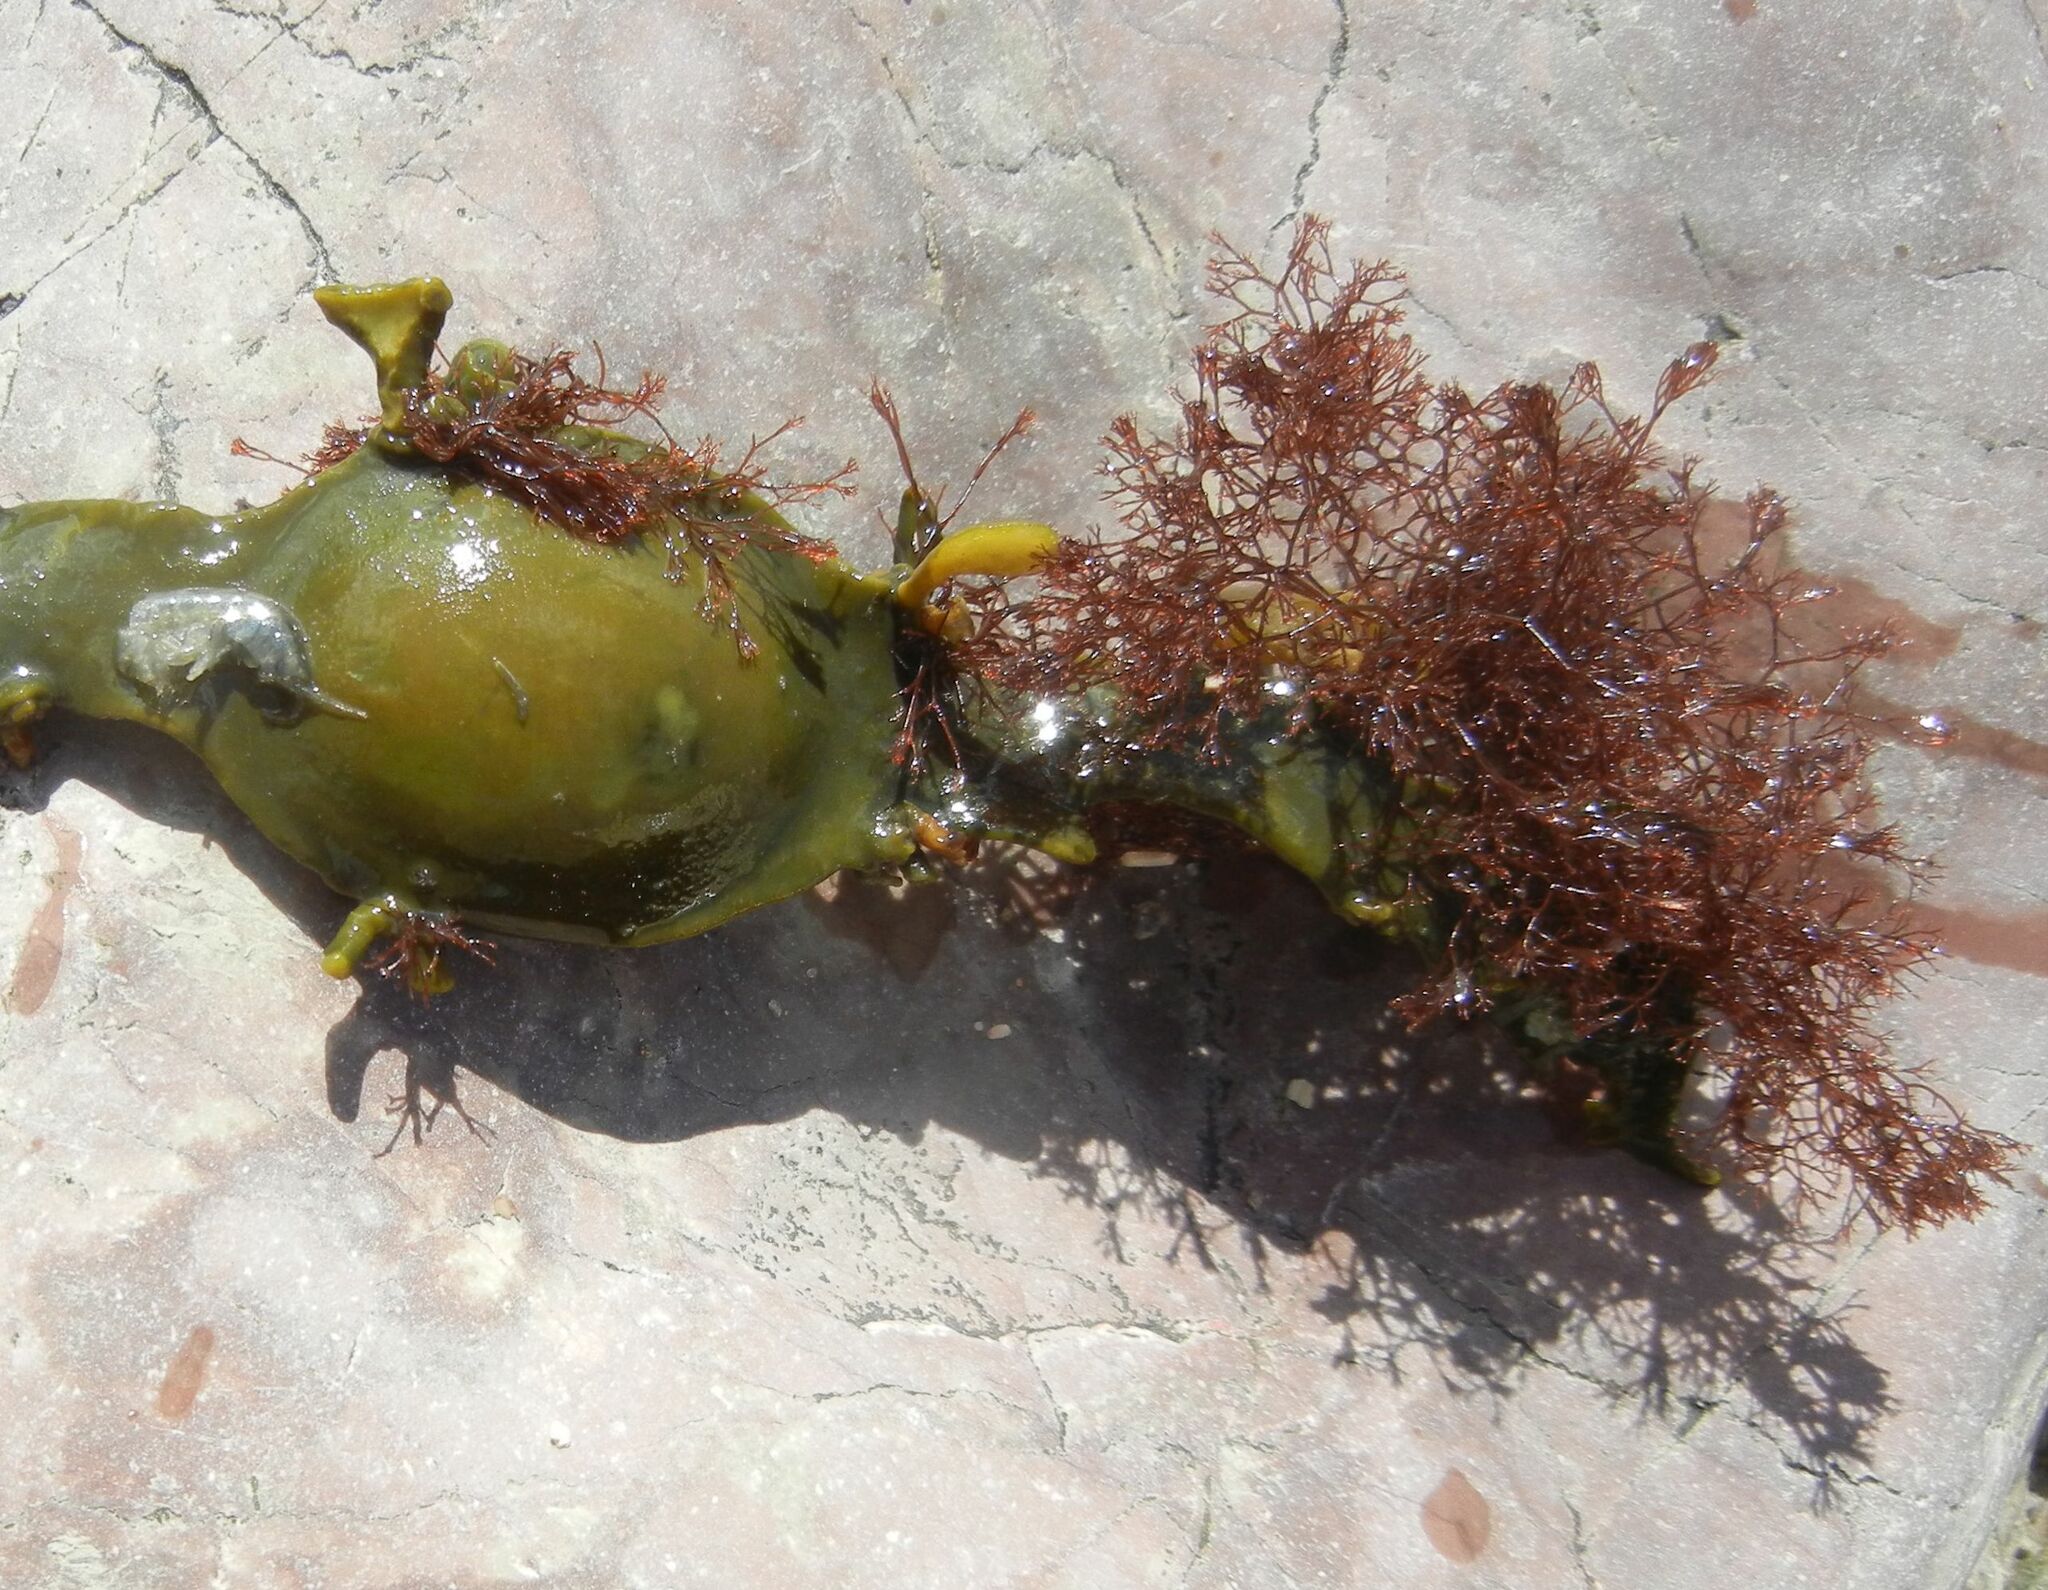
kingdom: Plantae
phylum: Rhodophyta
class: Florideophyceae
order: Ceramiales
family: Rhodomelaceae
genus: Vertebrata
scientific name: Vertebrata lanosa
